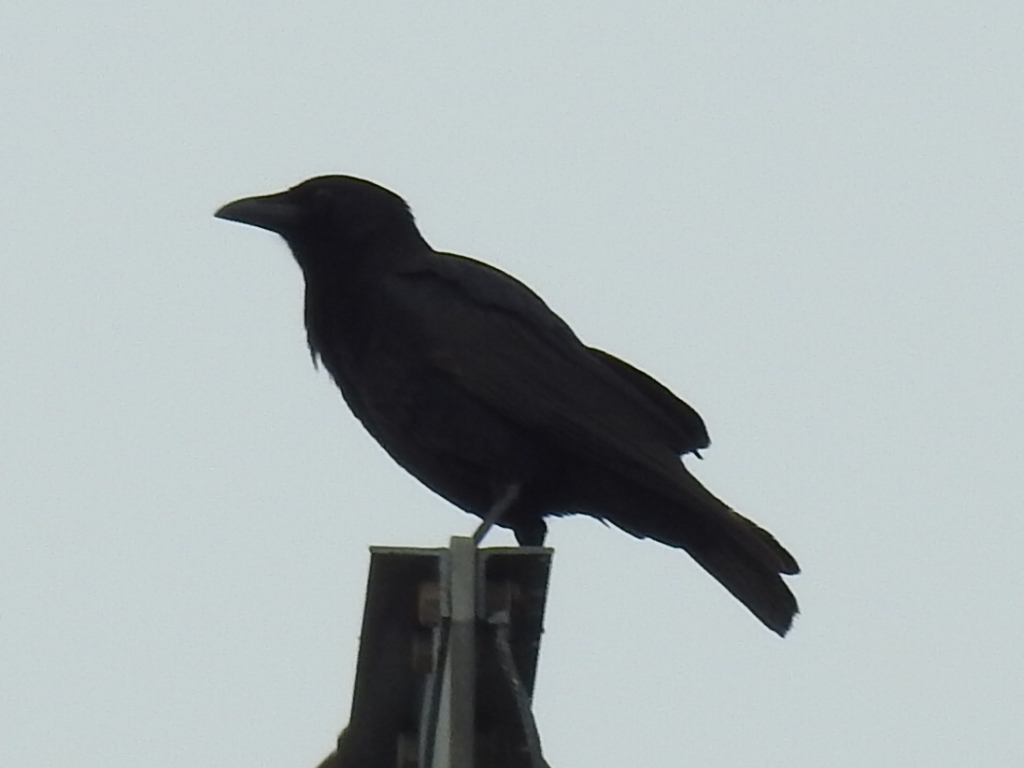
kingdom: Animalia
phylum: Chordata
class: Aves
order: Passeriformes
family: Corvidae
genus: Corvus
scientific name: Corvus brachyrhynchos
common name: American crow
